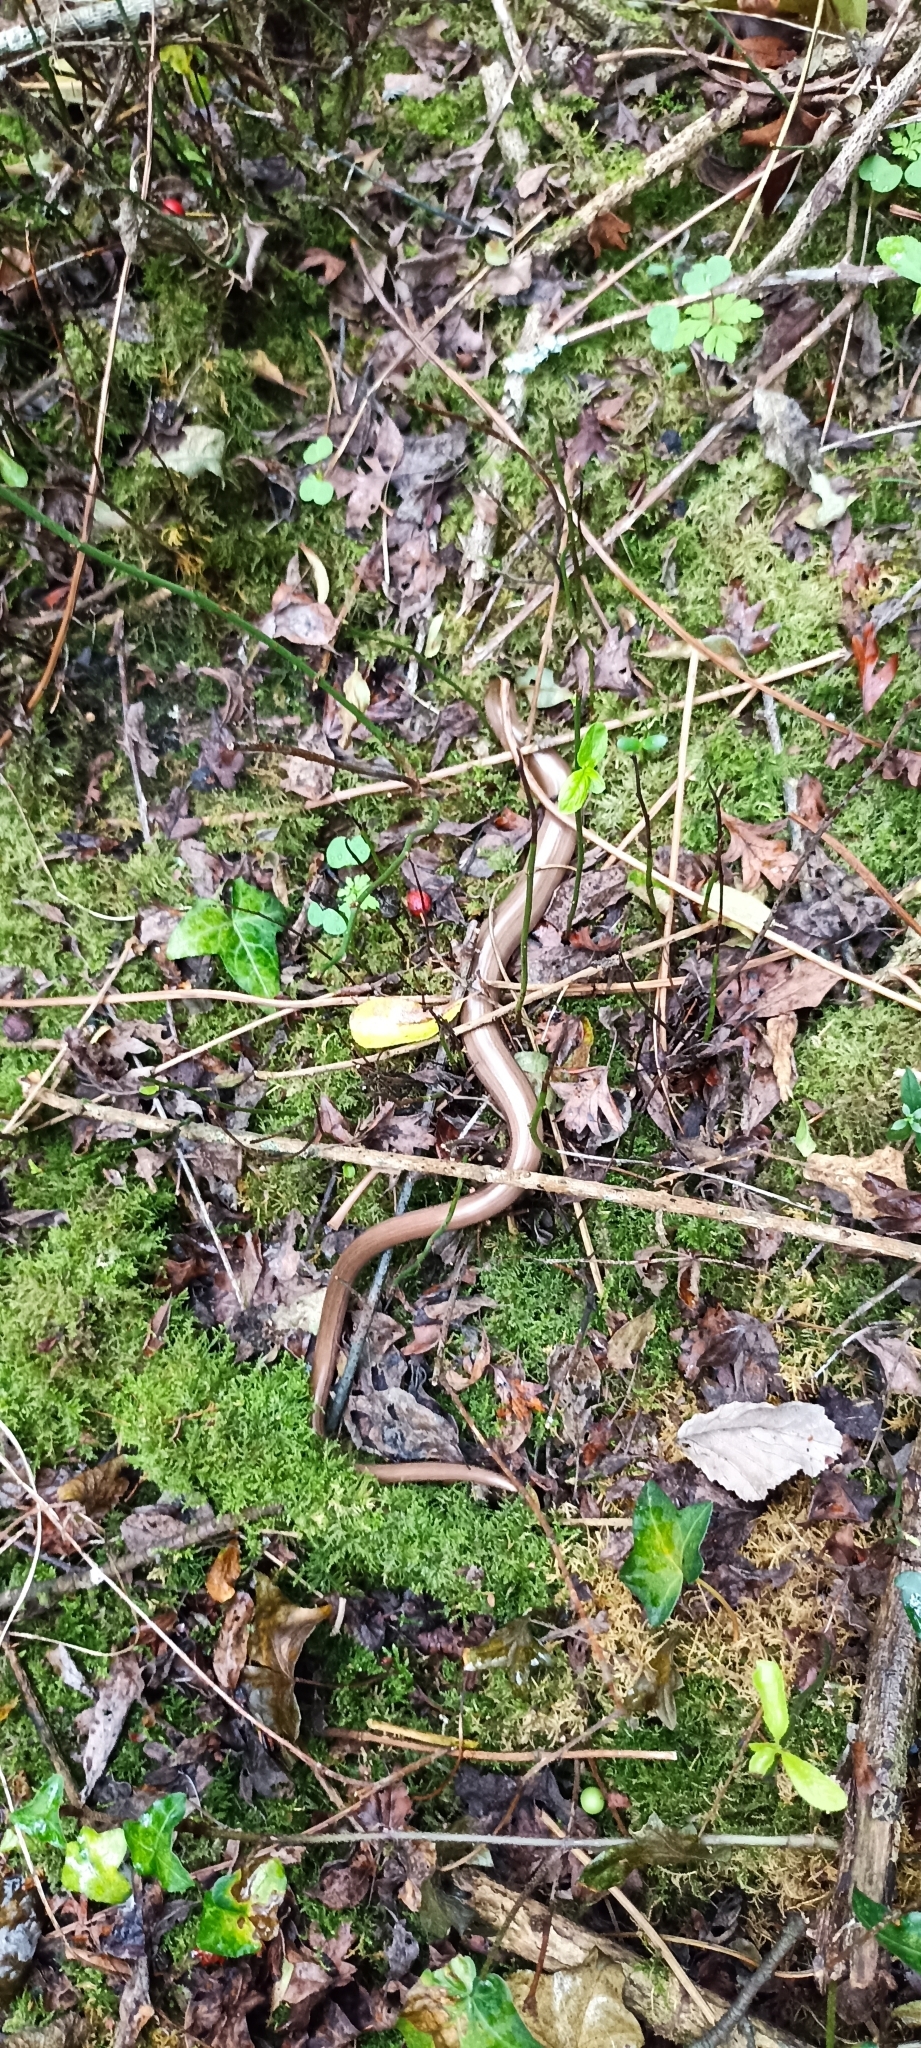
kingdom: Animalia
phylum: Chordata
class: Squamata
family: Anguidae
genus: Anguis
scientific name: Anguis fragilis
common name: Slow worm
